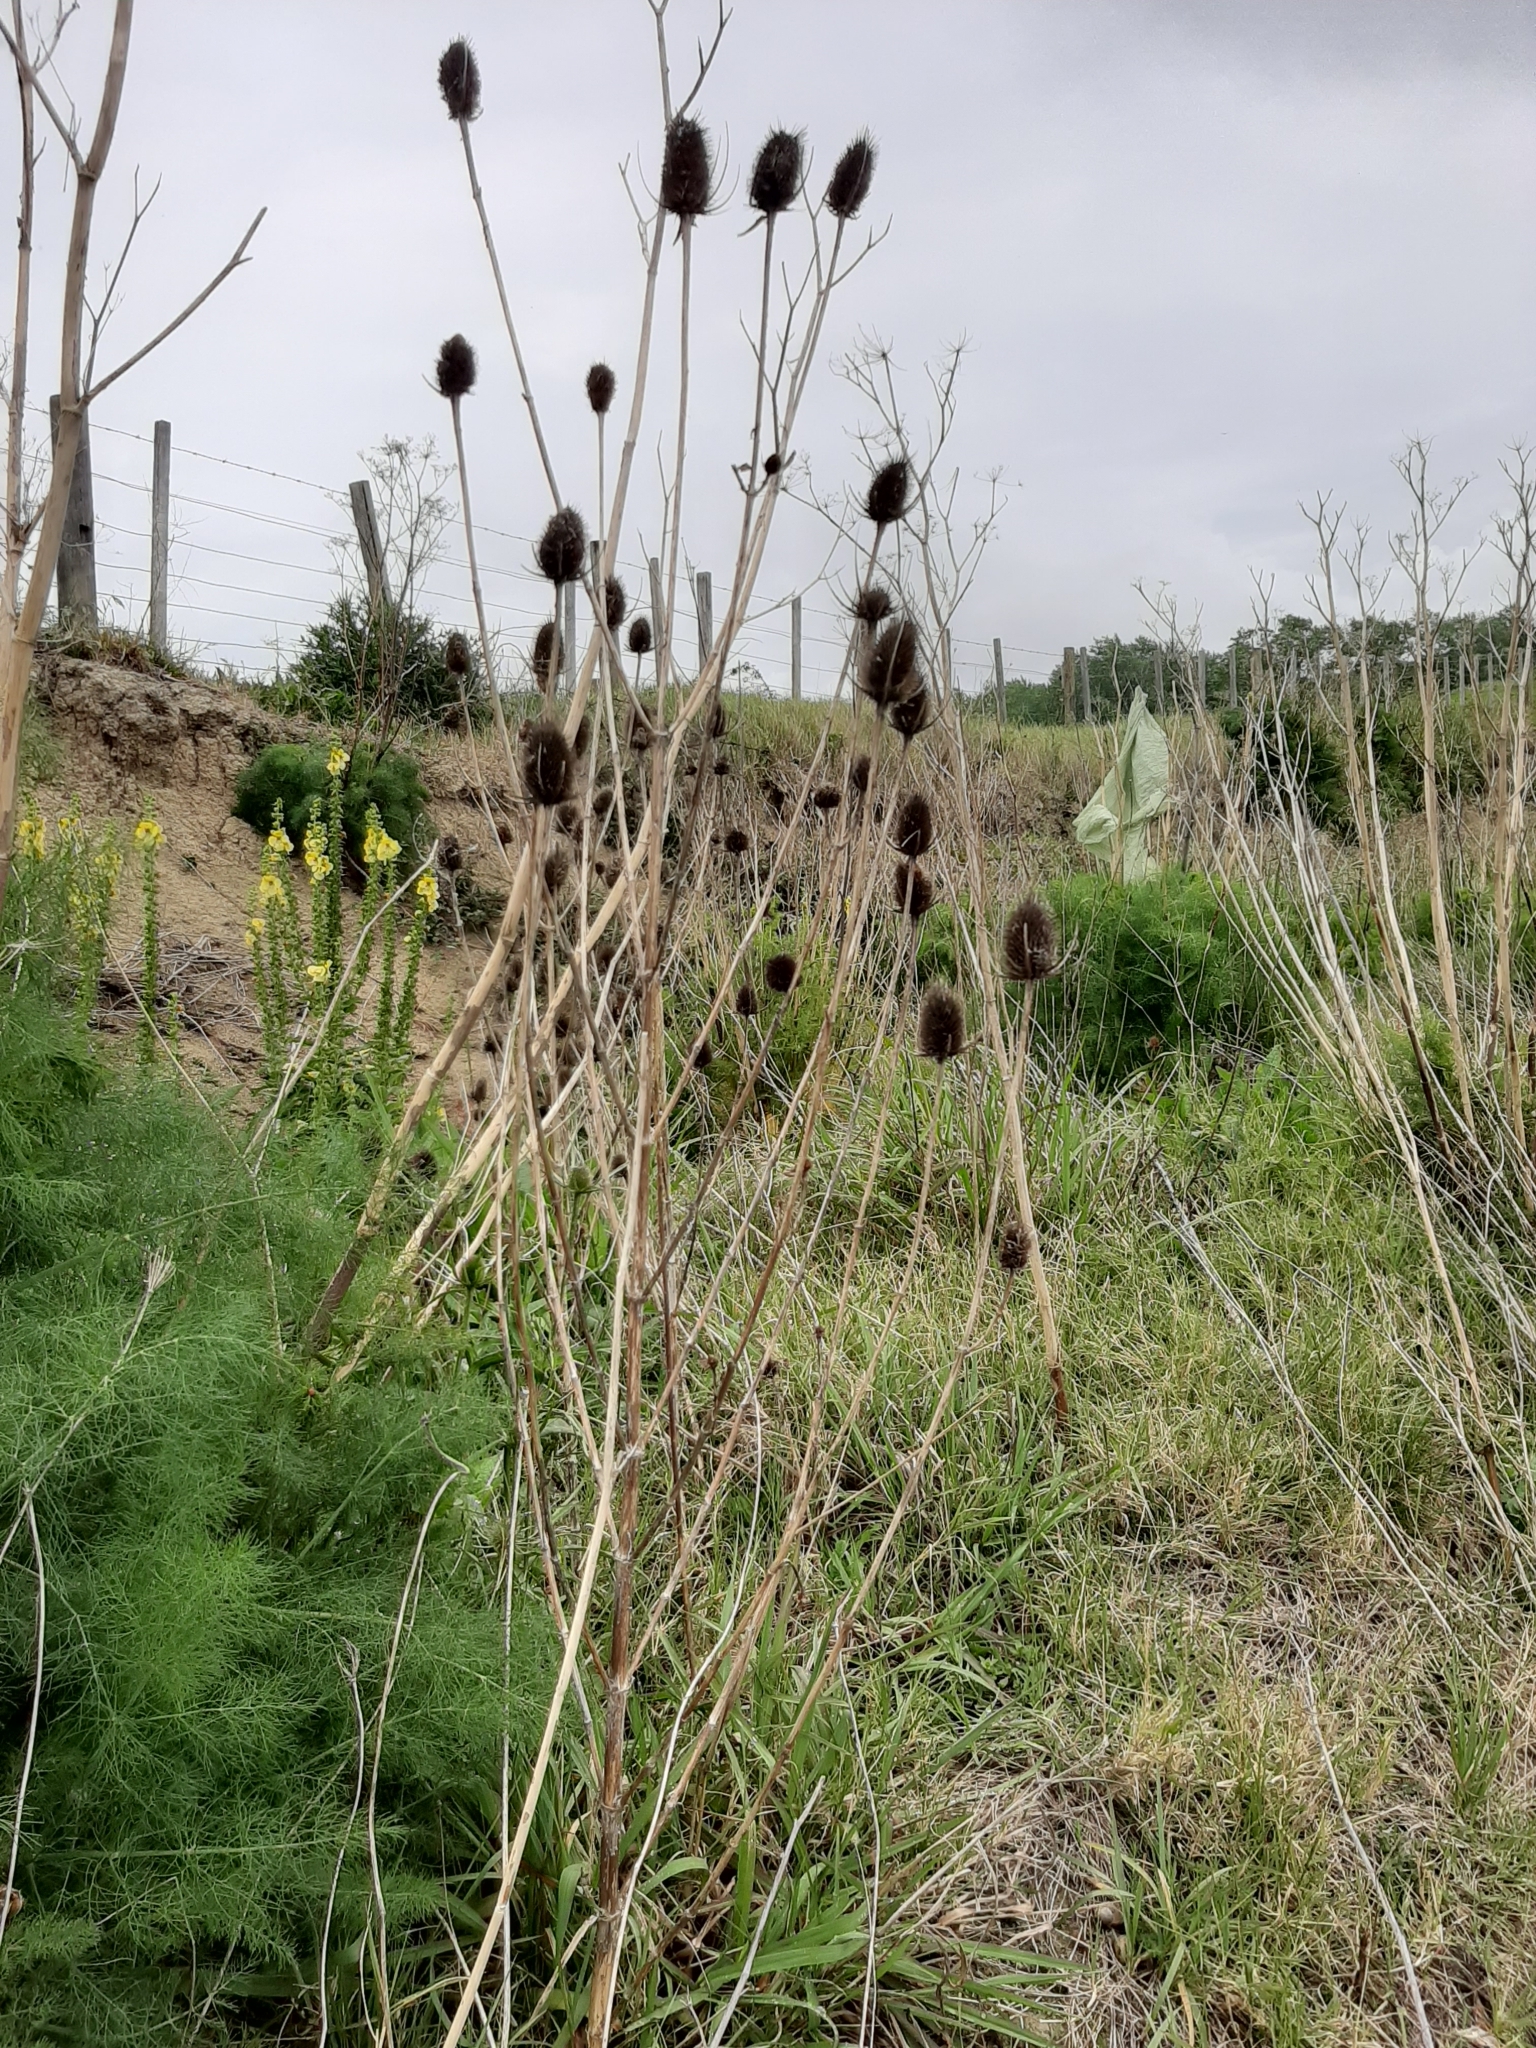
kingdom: Plantae
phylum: Tracheophyta
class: Magnoliopsida
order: Dipsacales
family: Caprifoliaceae
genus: Dipsacus
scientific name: Dipsacus fullonum
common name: Teasel
